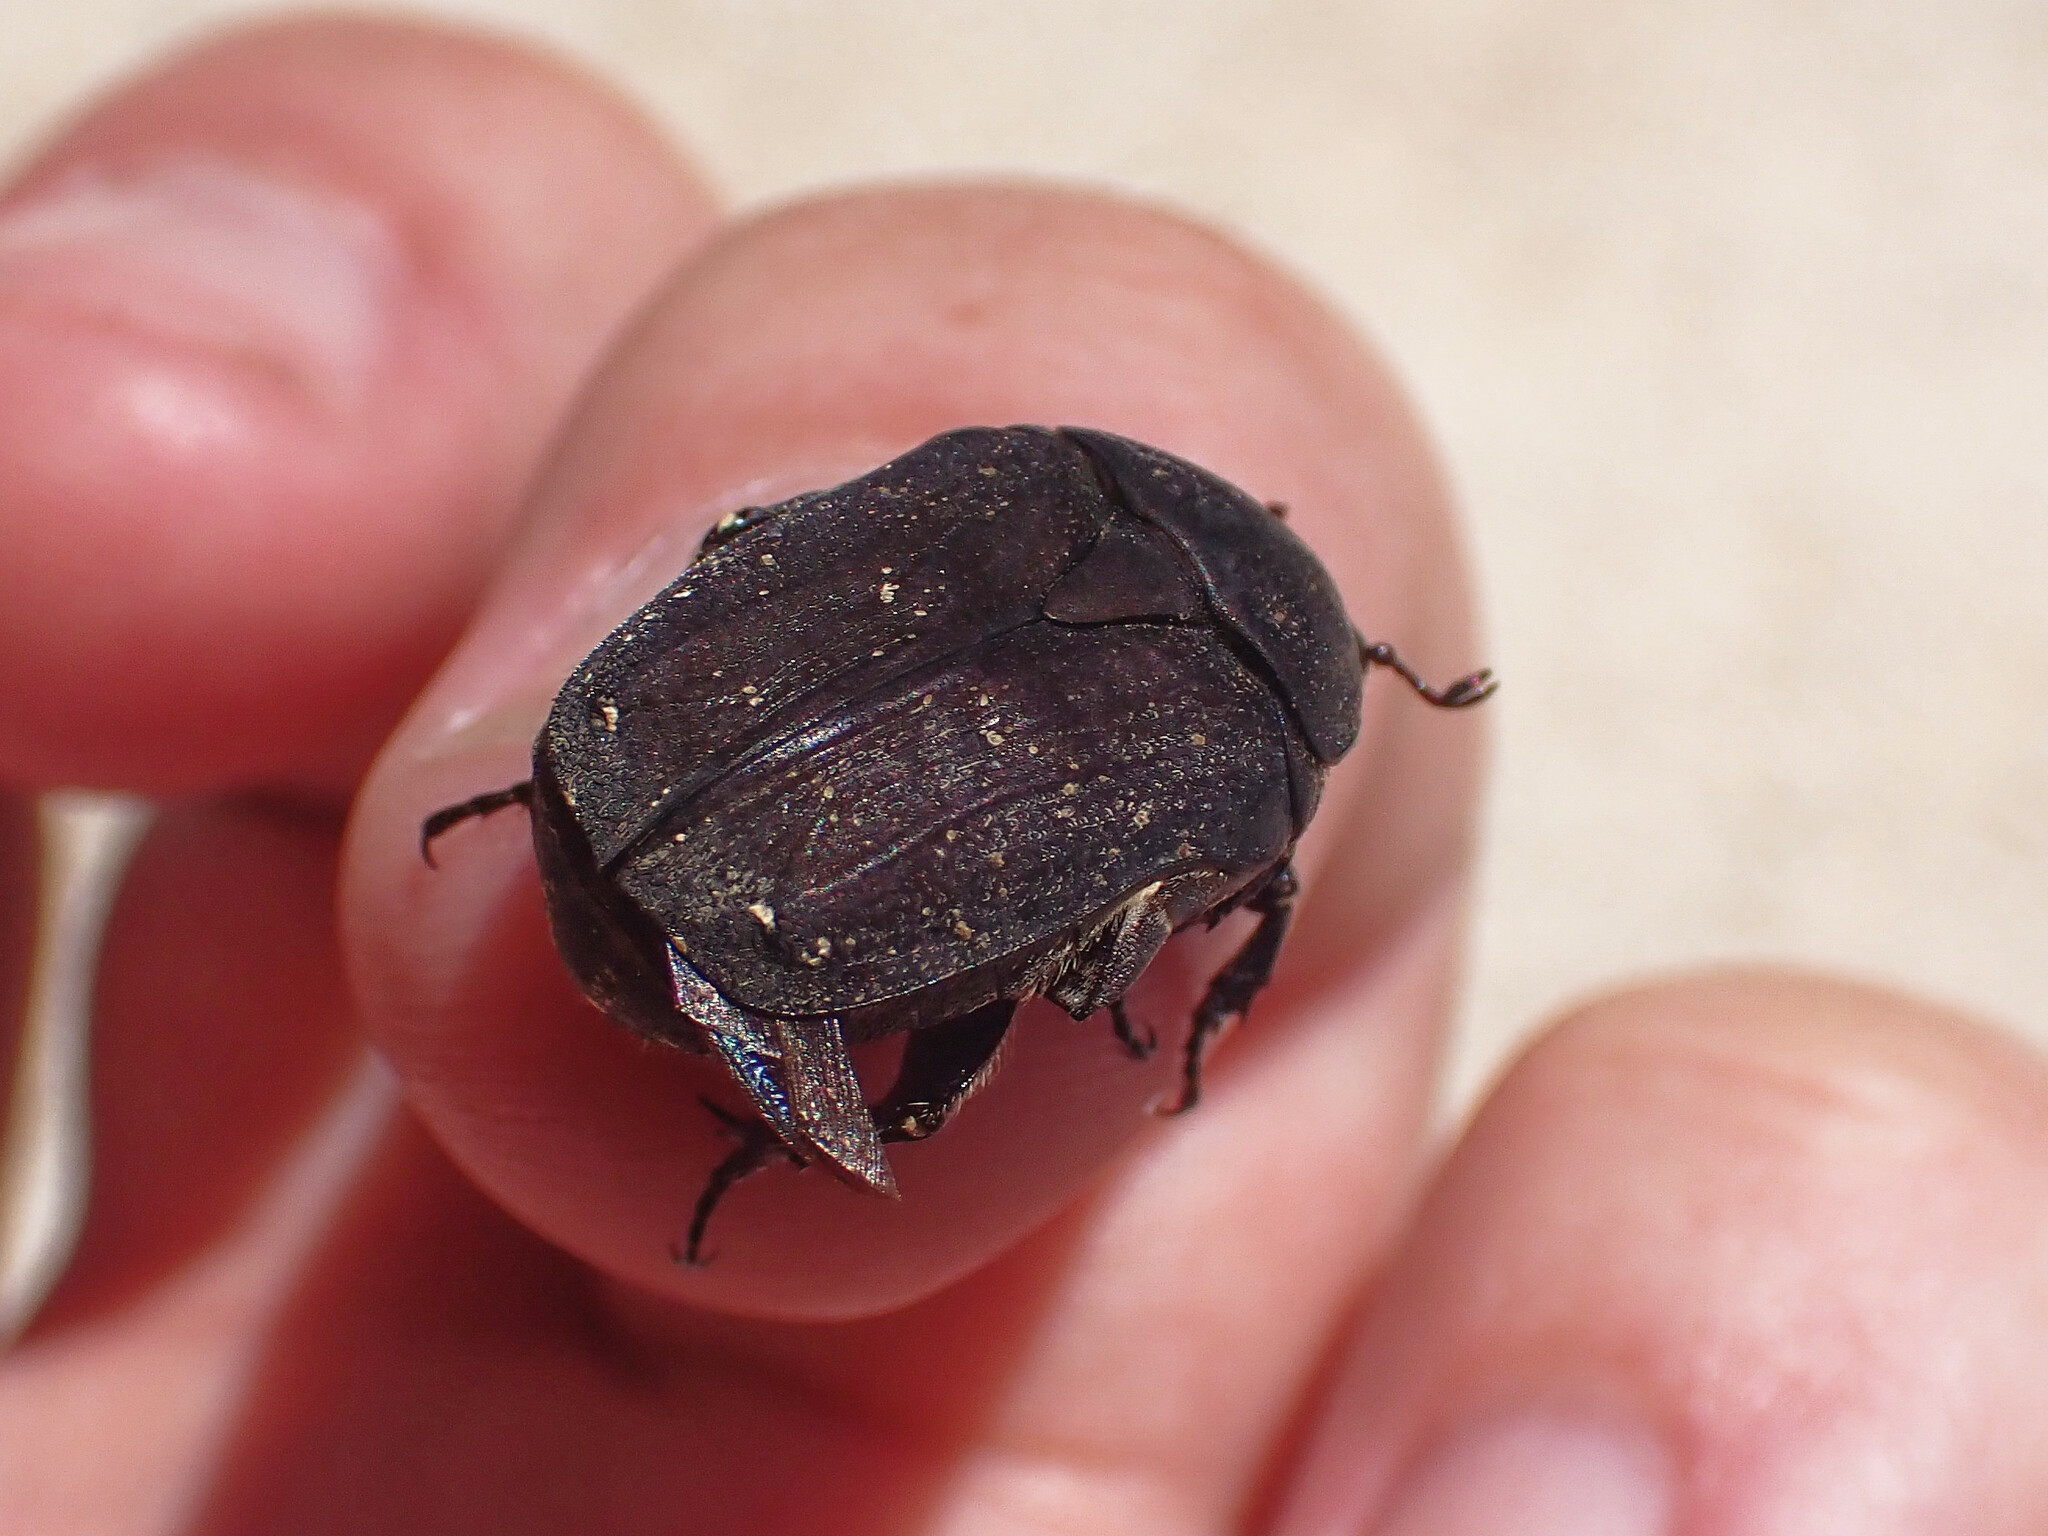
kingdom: Animalia
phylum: Arthropoda
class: Insecta
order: Coleoptera
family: Scarabaeidae
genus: Protaetia
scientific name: Protaetia morio
